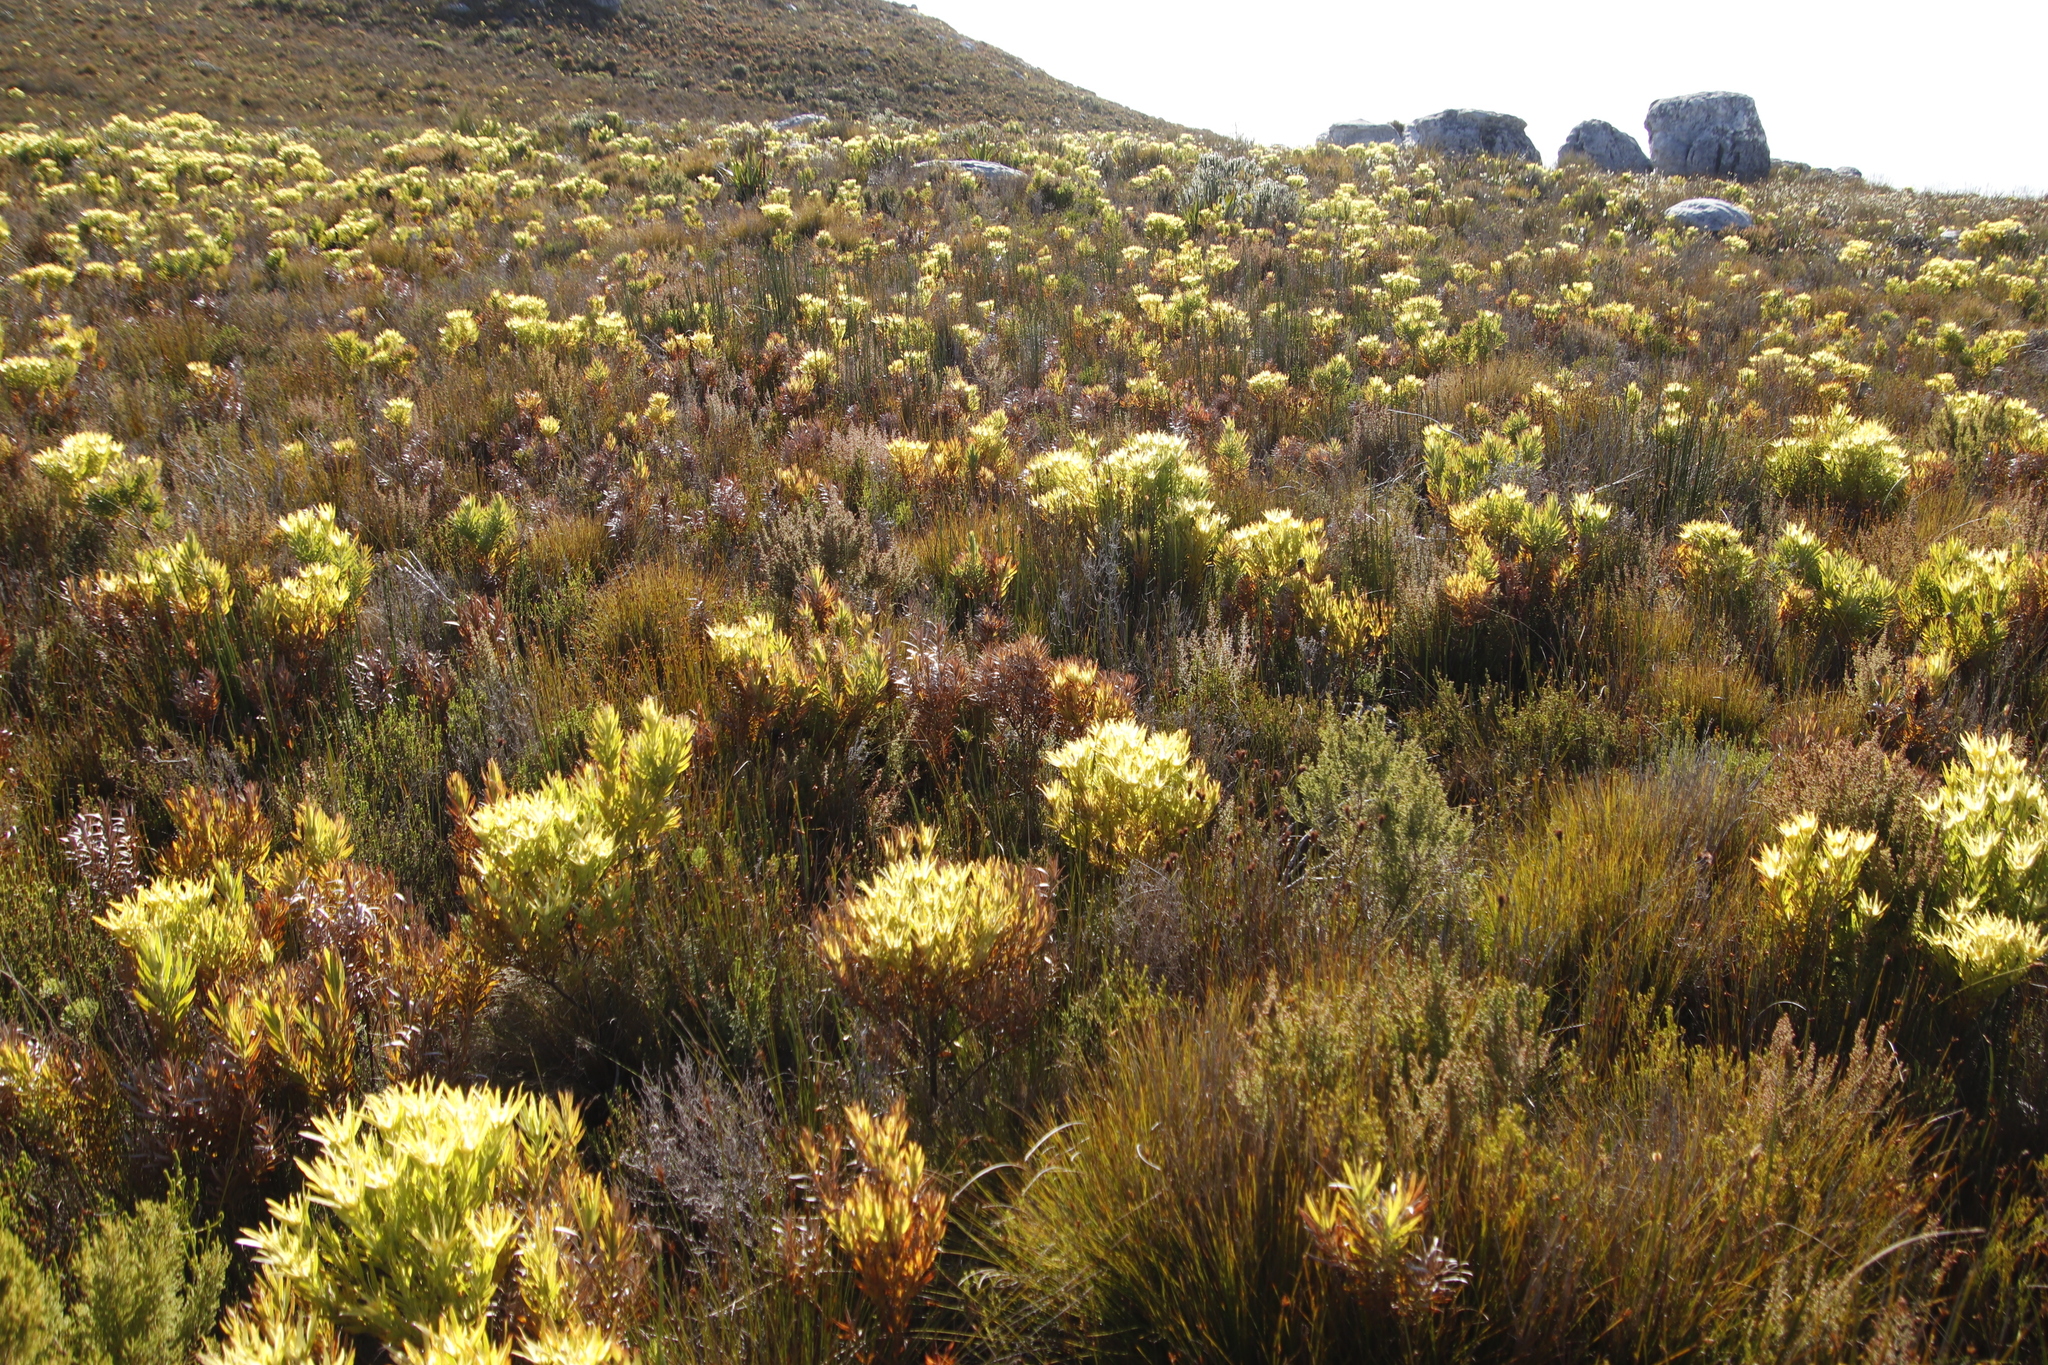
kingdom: Plantae
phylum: Tracheophyta
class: Magnoliopsida
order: Proteales
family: Proteaceae
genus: Leucadendron
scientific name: Leucadendron xanthoconus
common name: Sickle-leaf conebush
